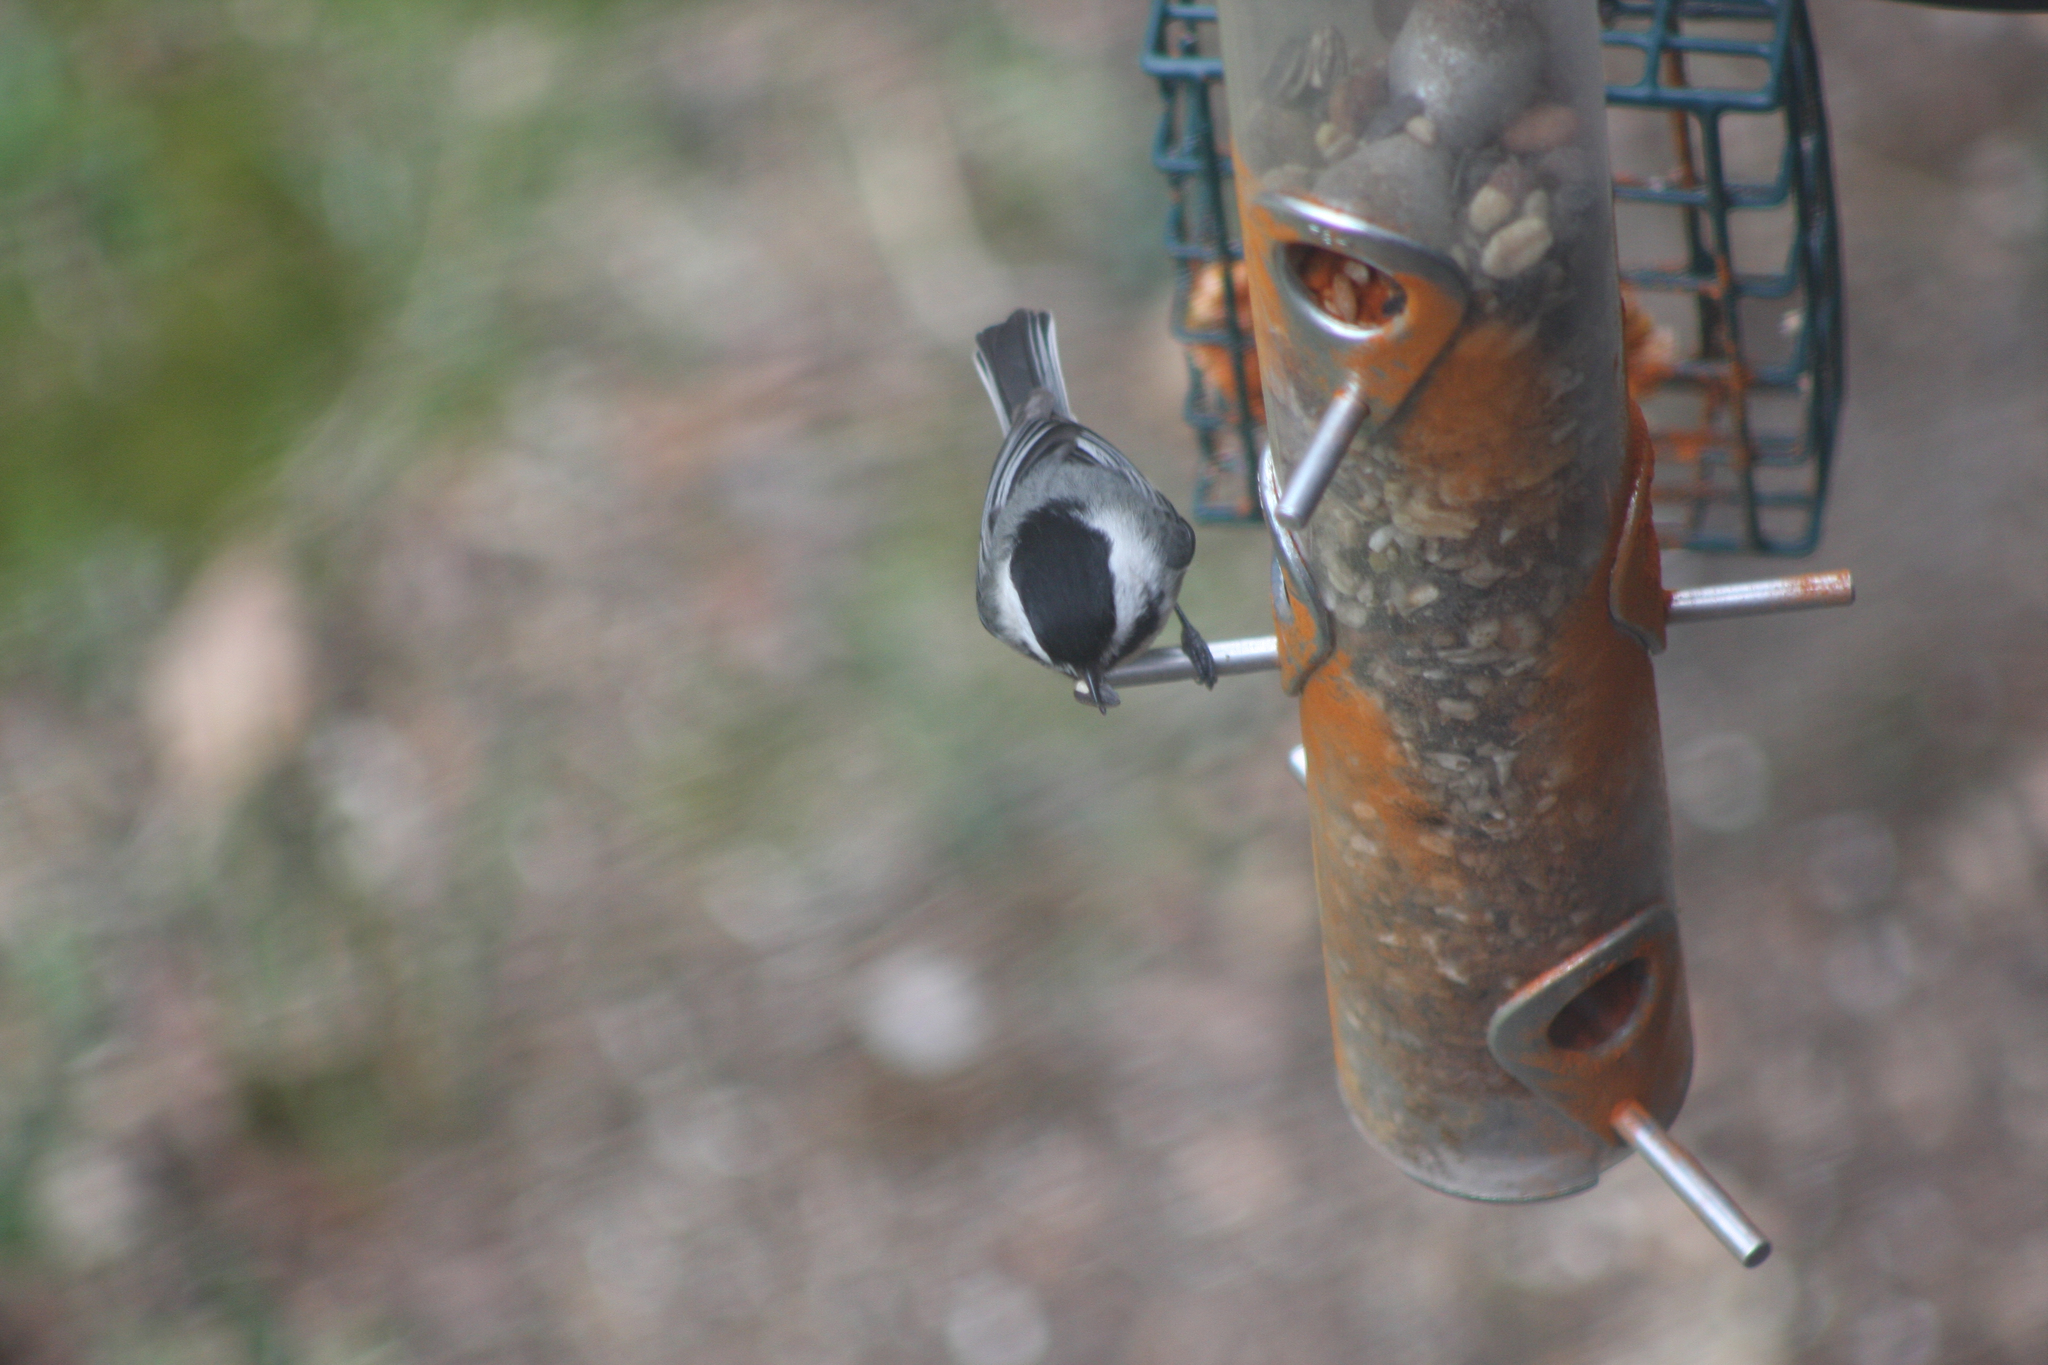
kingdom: Animalia
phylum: Chordata
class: Aves
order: Passeriformes
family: Paridae
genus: Poecile
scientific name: Poecile atricapillus
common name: Black-capped chickadee
